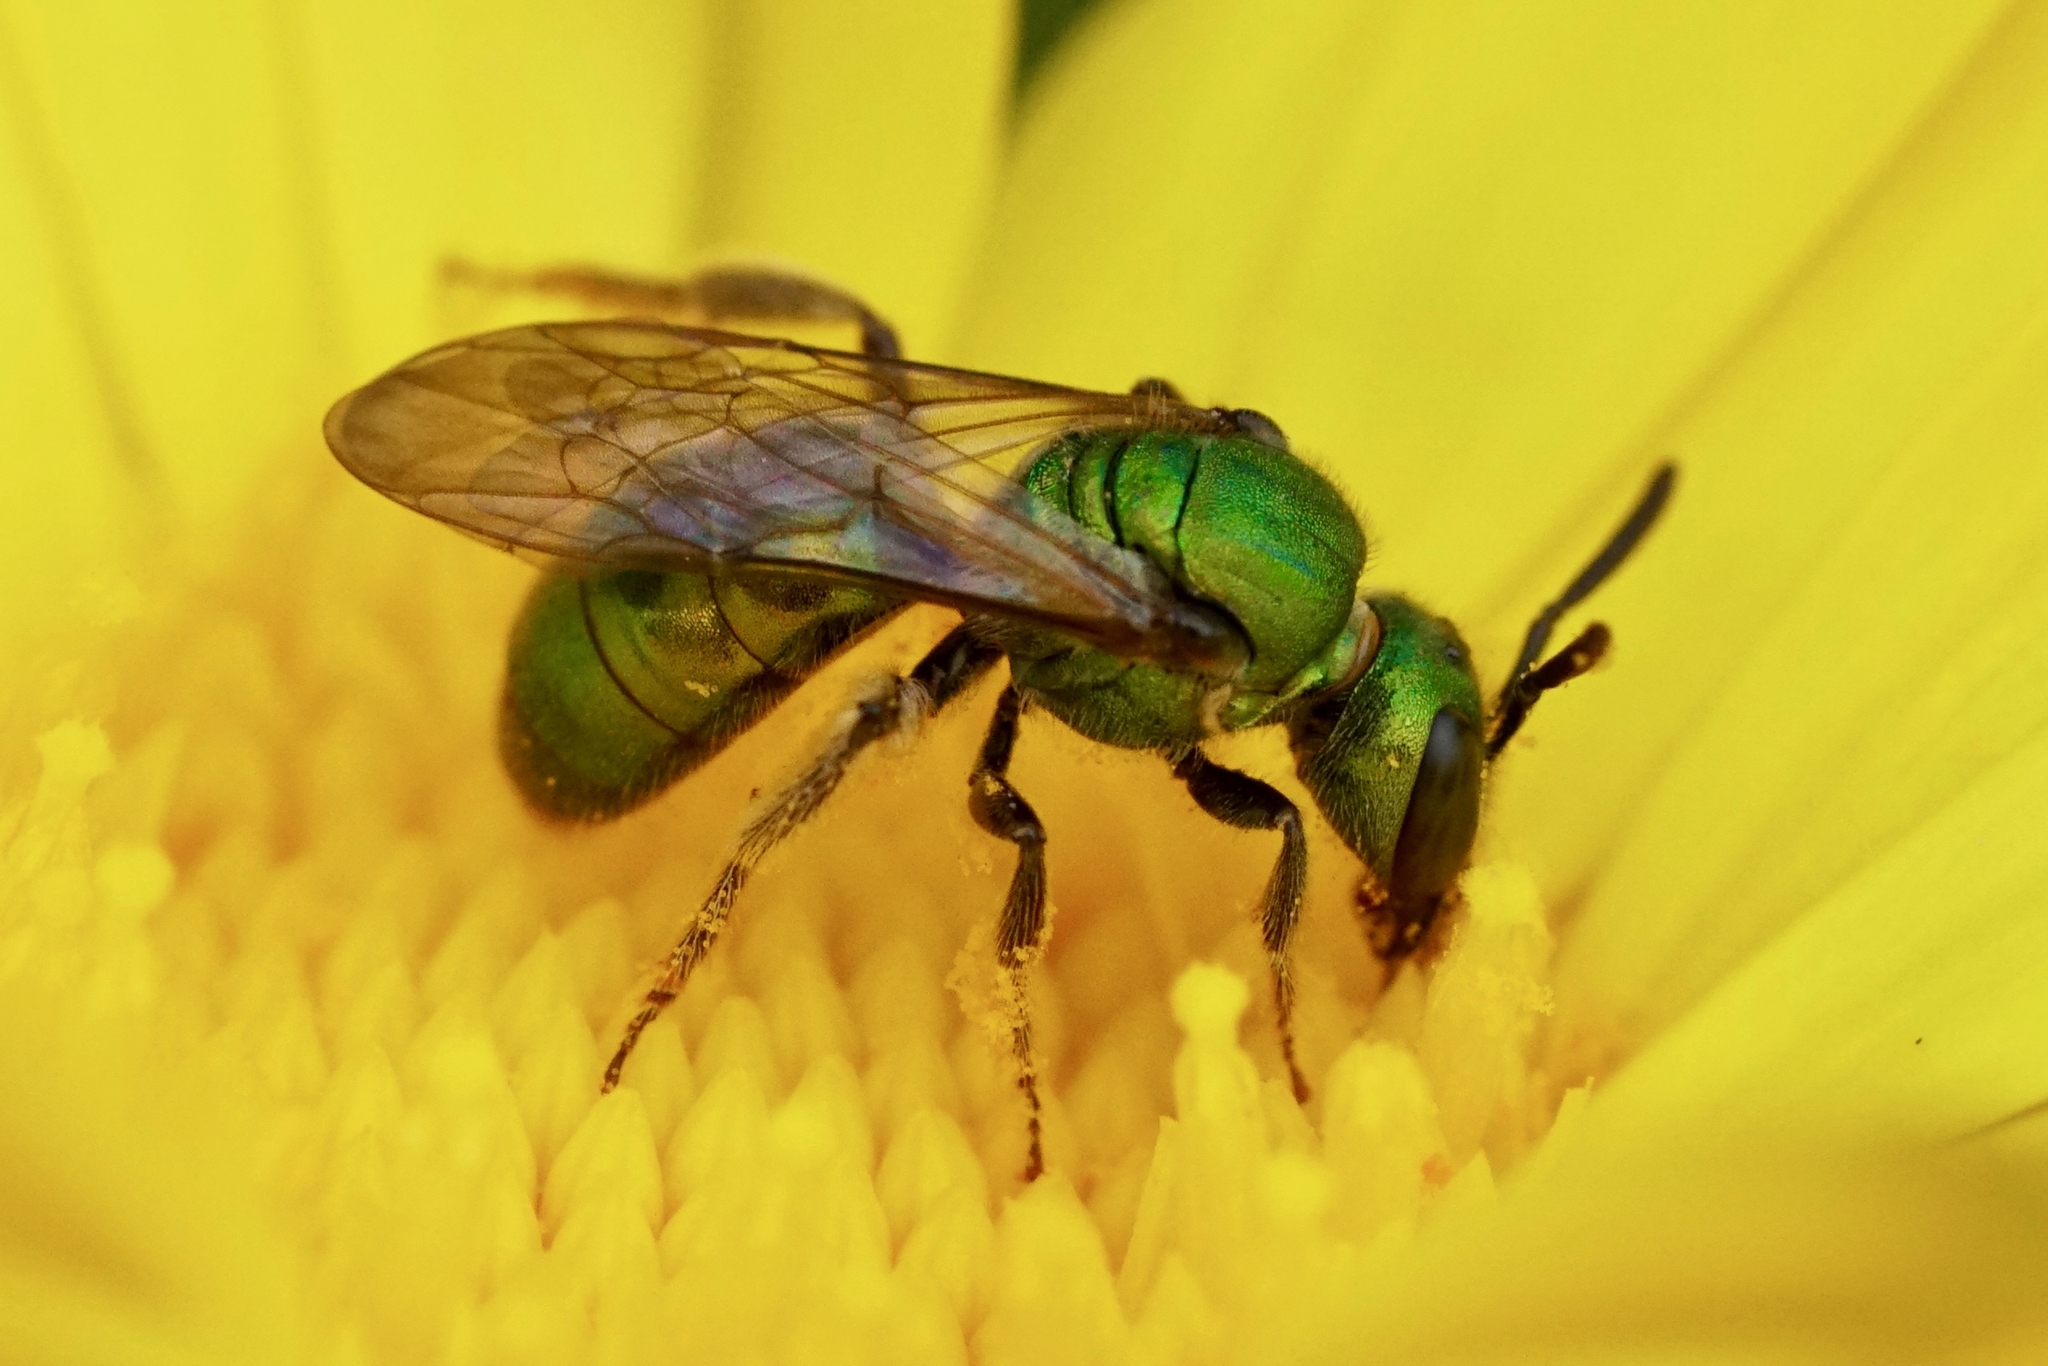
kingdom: Animalia
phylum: Arthropoda
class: Insecta
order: Hymenoptera
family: Halictidae
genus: Augochlora
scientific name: Augochlora pura
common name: Pure green sweat bee
